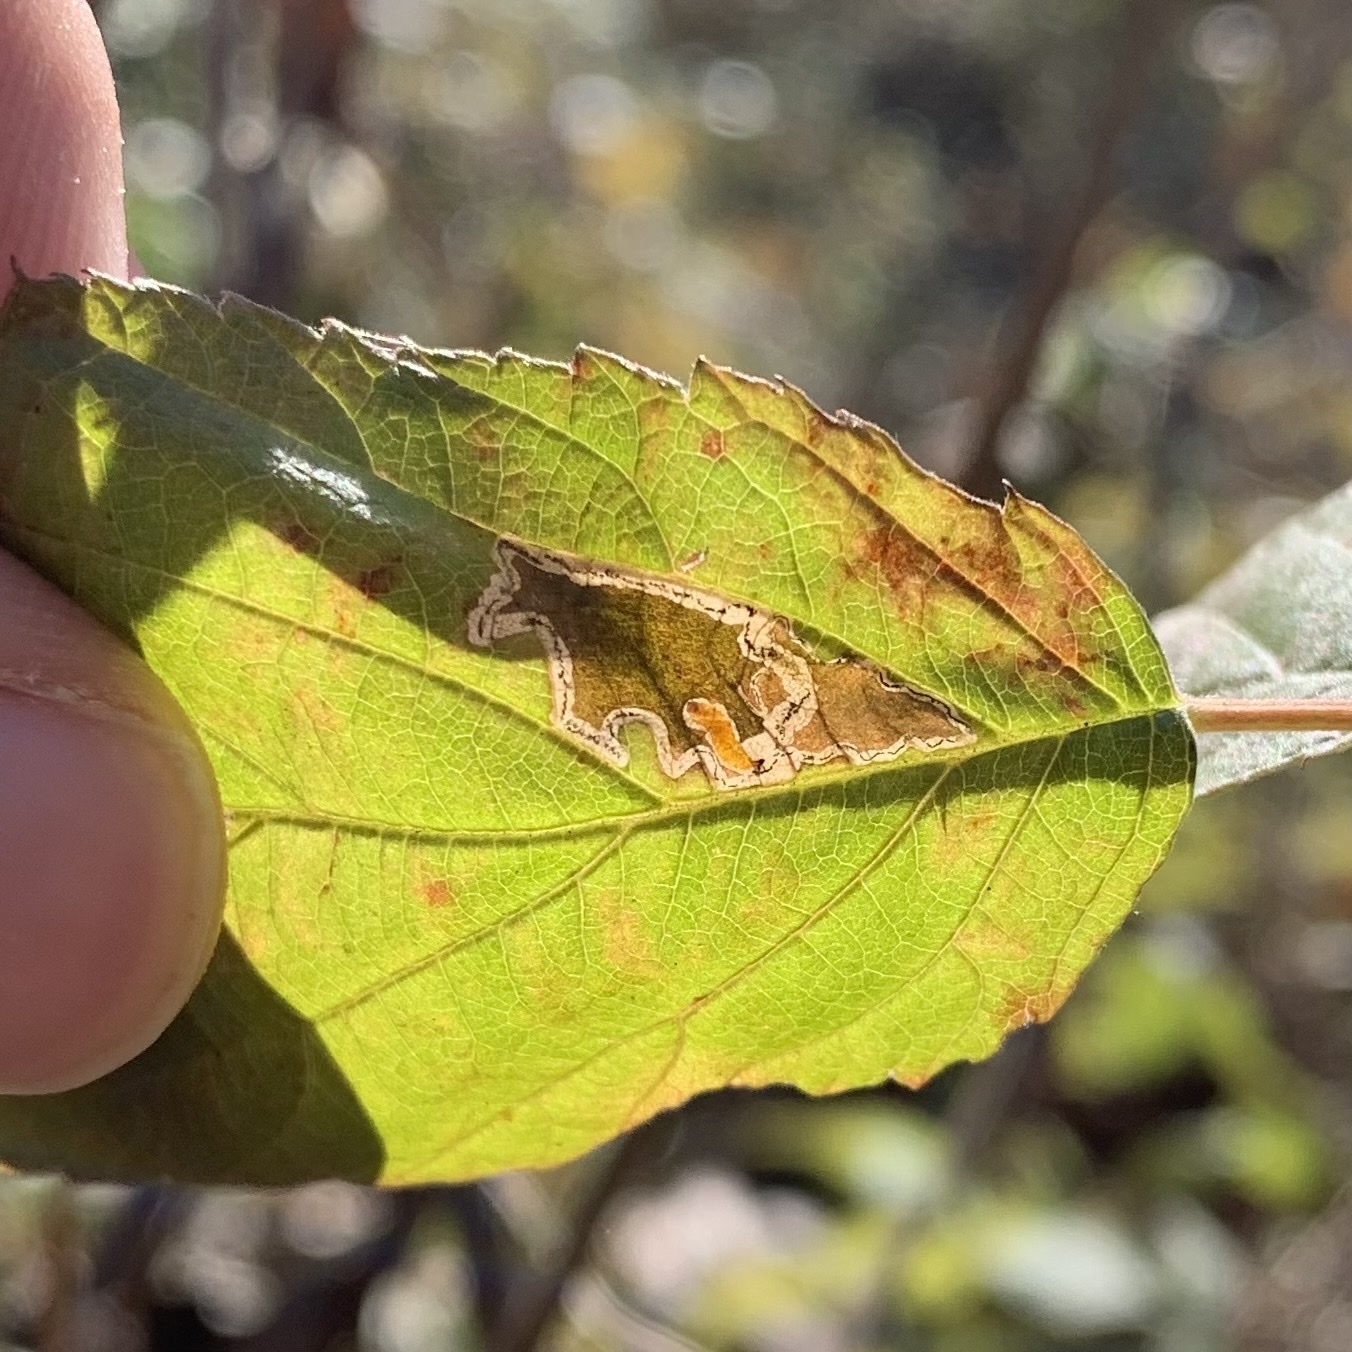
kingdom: Animalia
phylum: Arthropoda
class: Insecta
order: Lepidoptera
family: Nepticulidae
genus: Stigmella
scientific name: Stigmella villosella
